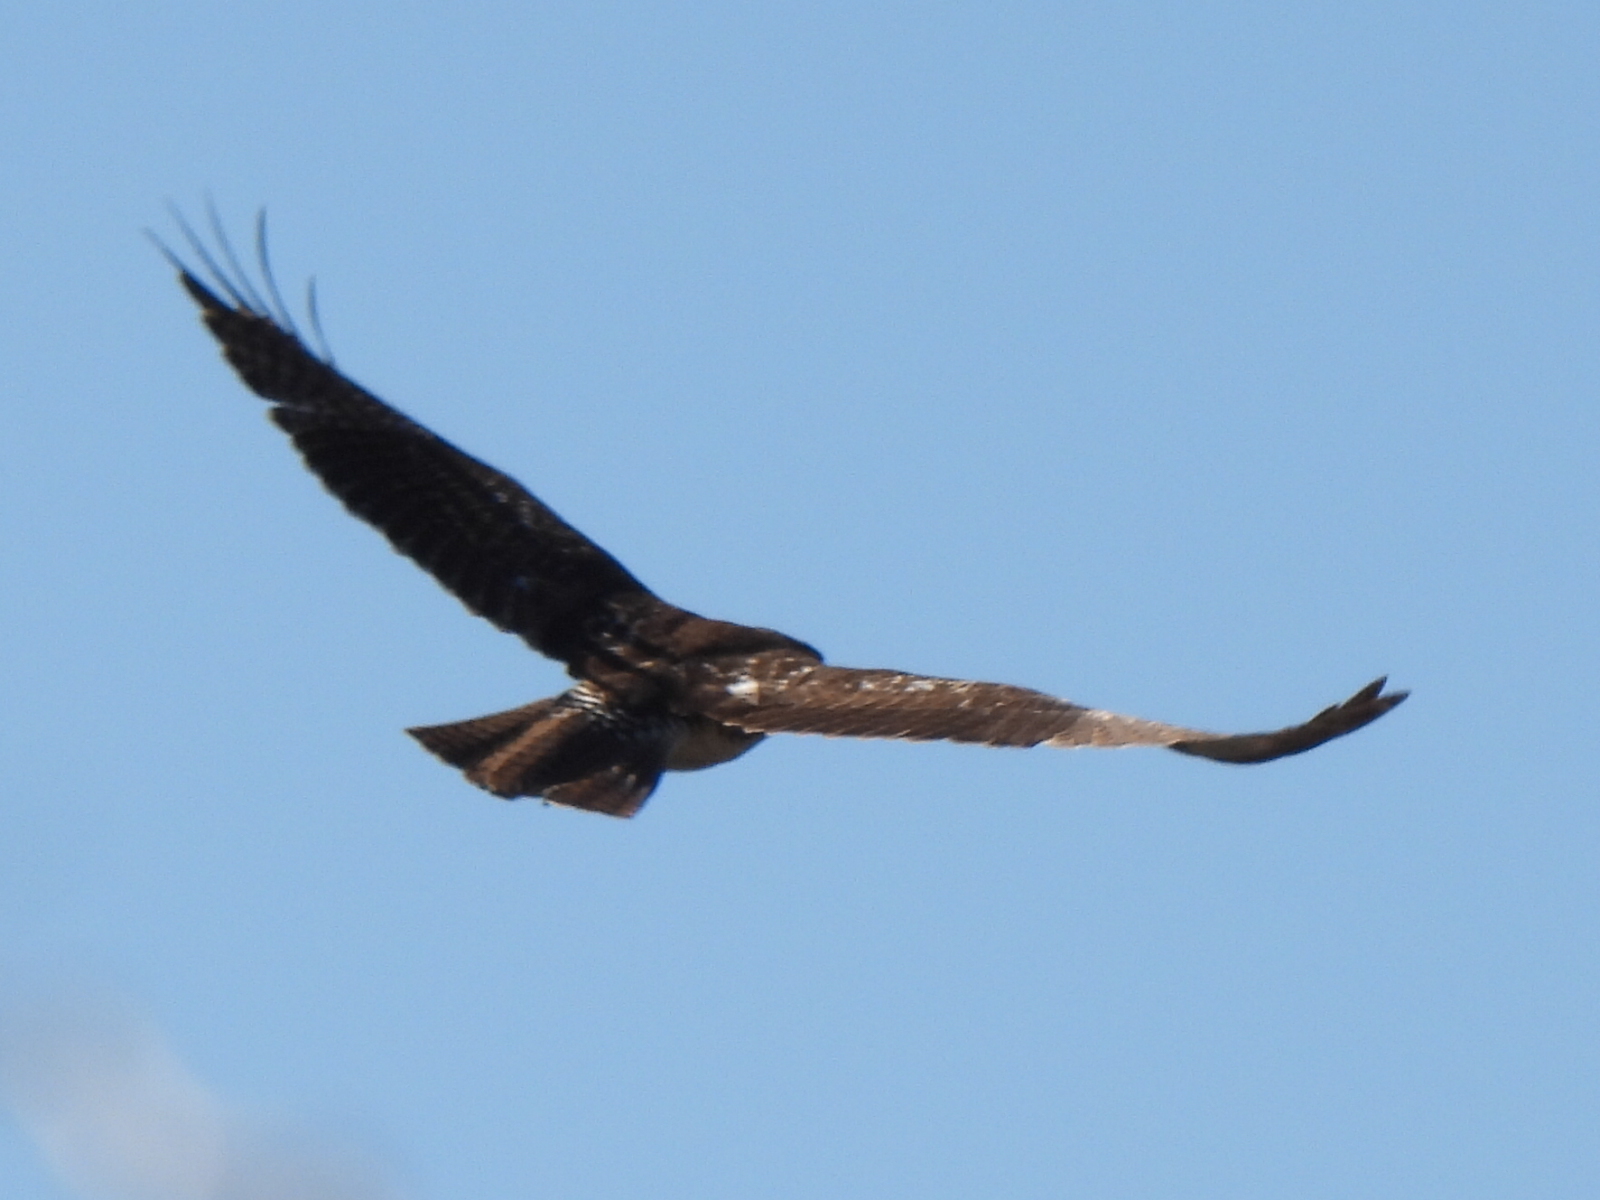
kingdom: Animalia
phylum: Chordata
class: Aves
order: Accipitriformes
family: Accipitridae
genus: Buteo
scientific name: Buteo jamaicensis
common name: Red-tailed hawk
